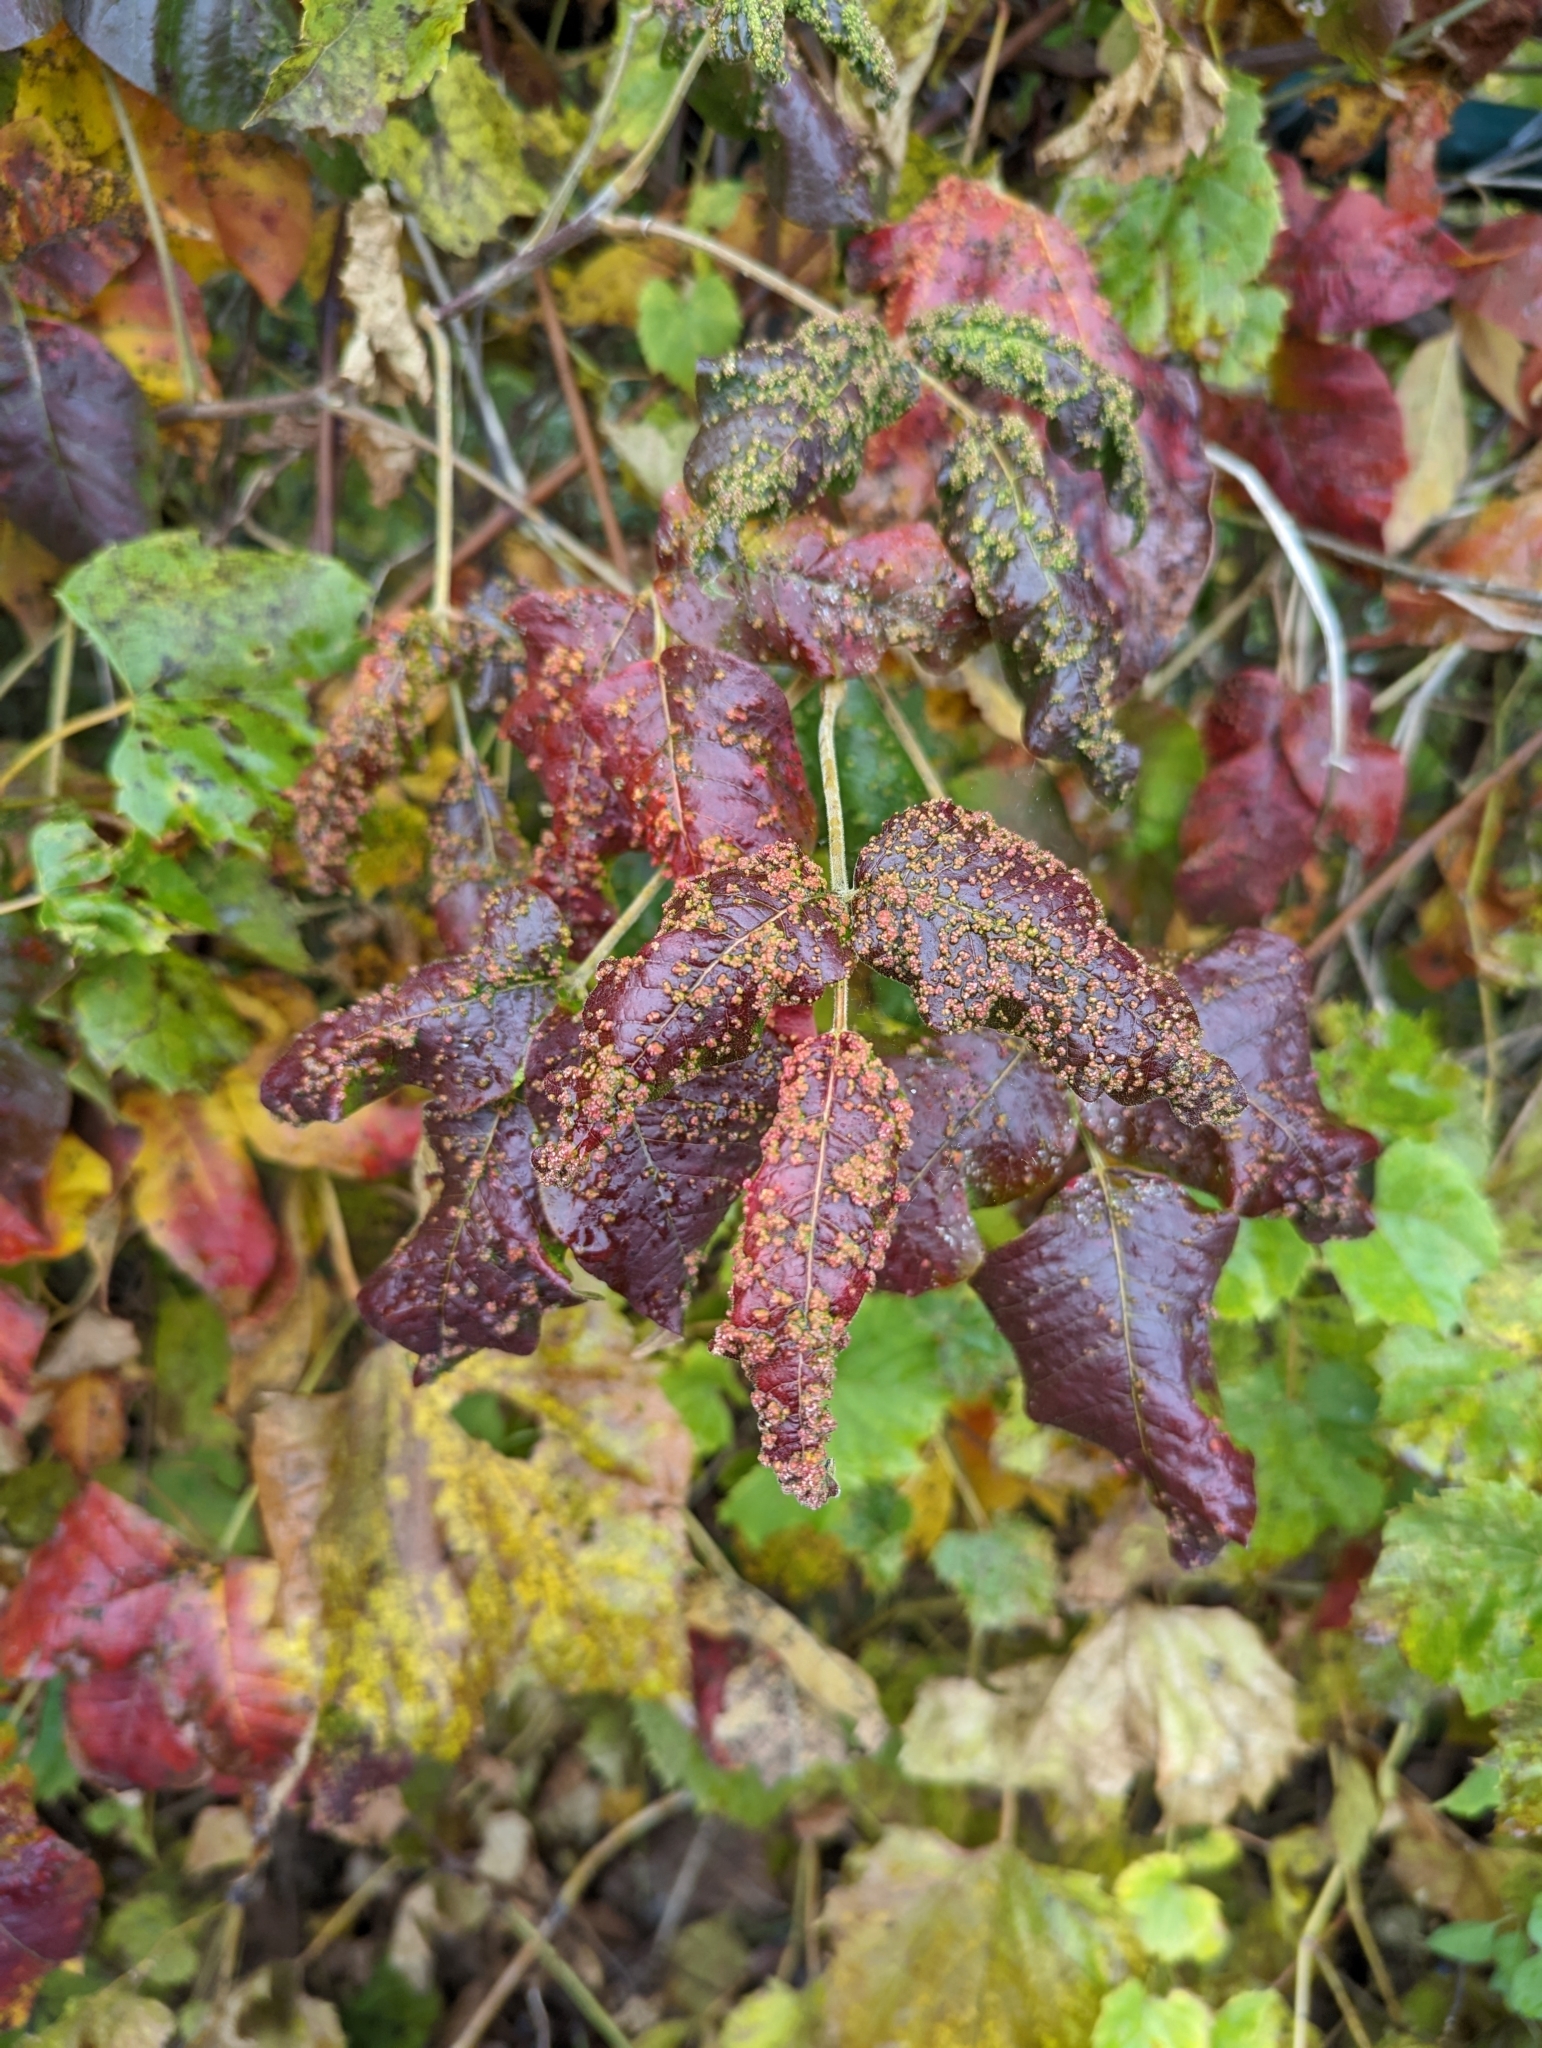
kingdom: Animalia
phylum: Arthropoda
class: Arachnida
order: Trombidiformes
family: Eriophyidae
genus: Aculops
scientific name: Aculops
